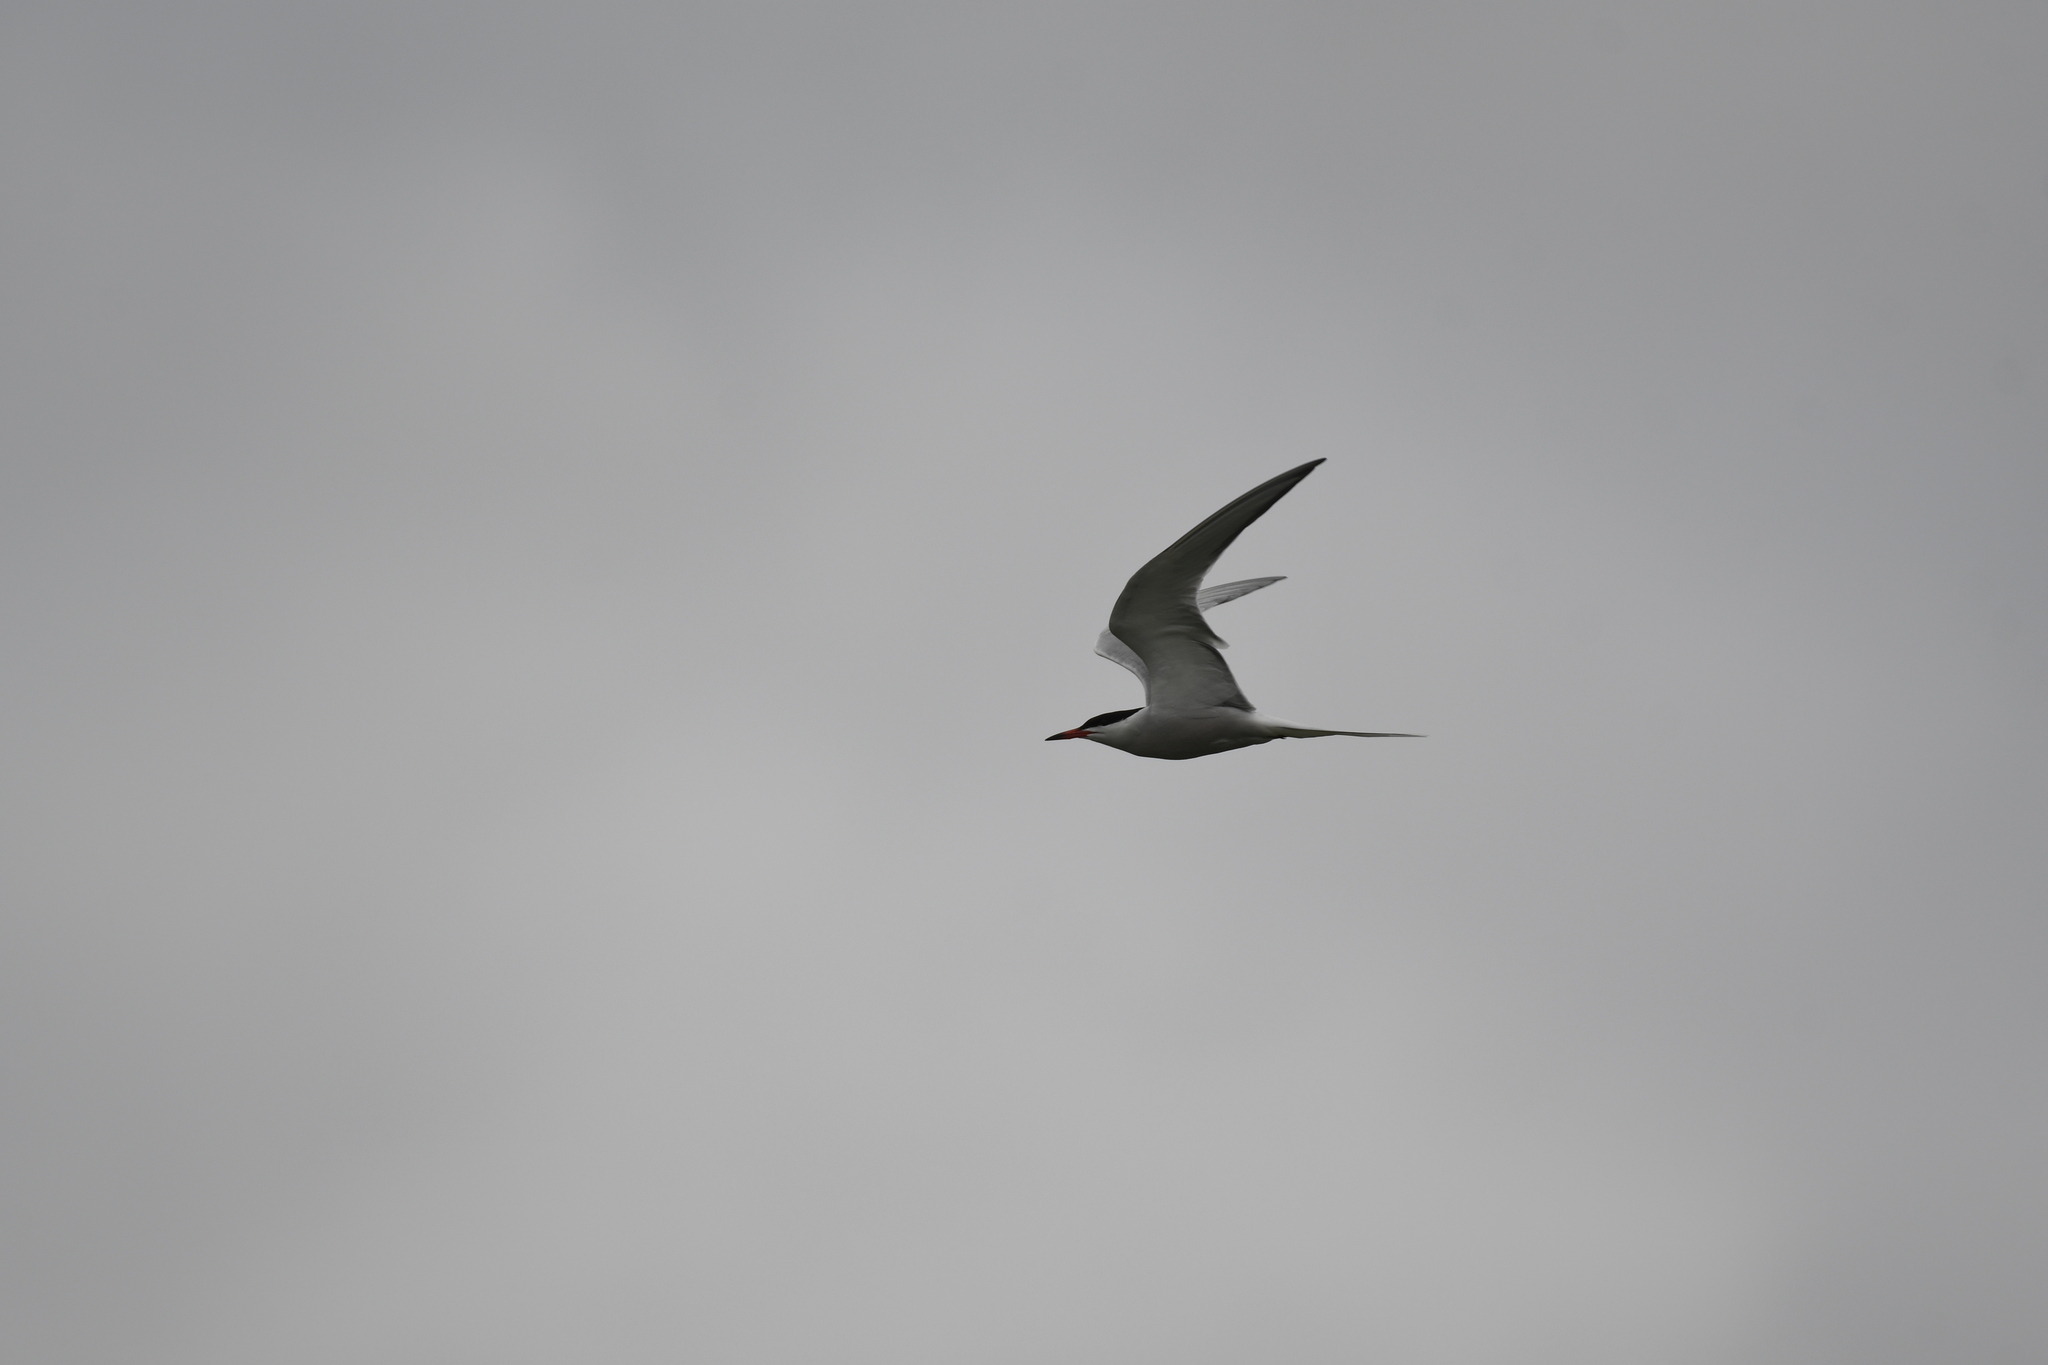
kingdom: Animalia
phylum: Chordata
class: Aves
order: Charadriiformes
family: Laridae
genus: Sterna
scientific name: Sterna hirundo
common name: Common tern
